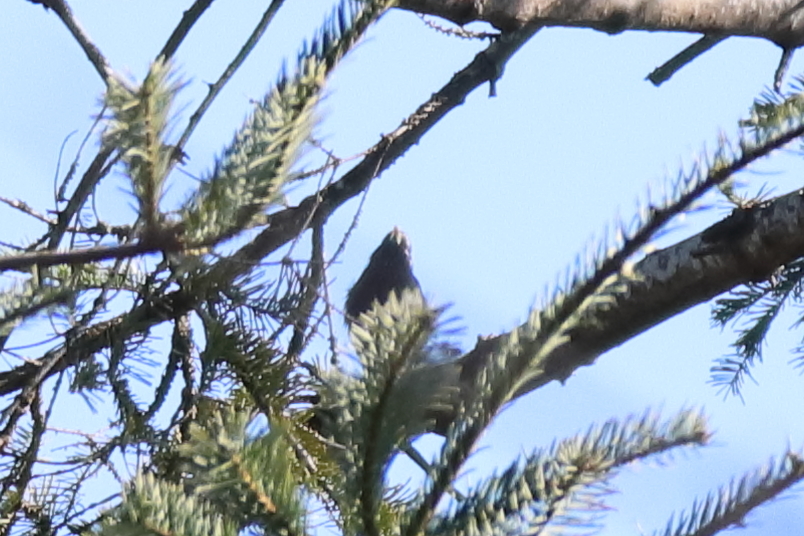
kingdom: Animalia
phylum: Chordata
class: Aves
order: Passeriformes
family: Sturnidae
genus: Sturnus
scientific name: Sturnus vulgaris
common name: Common starling
